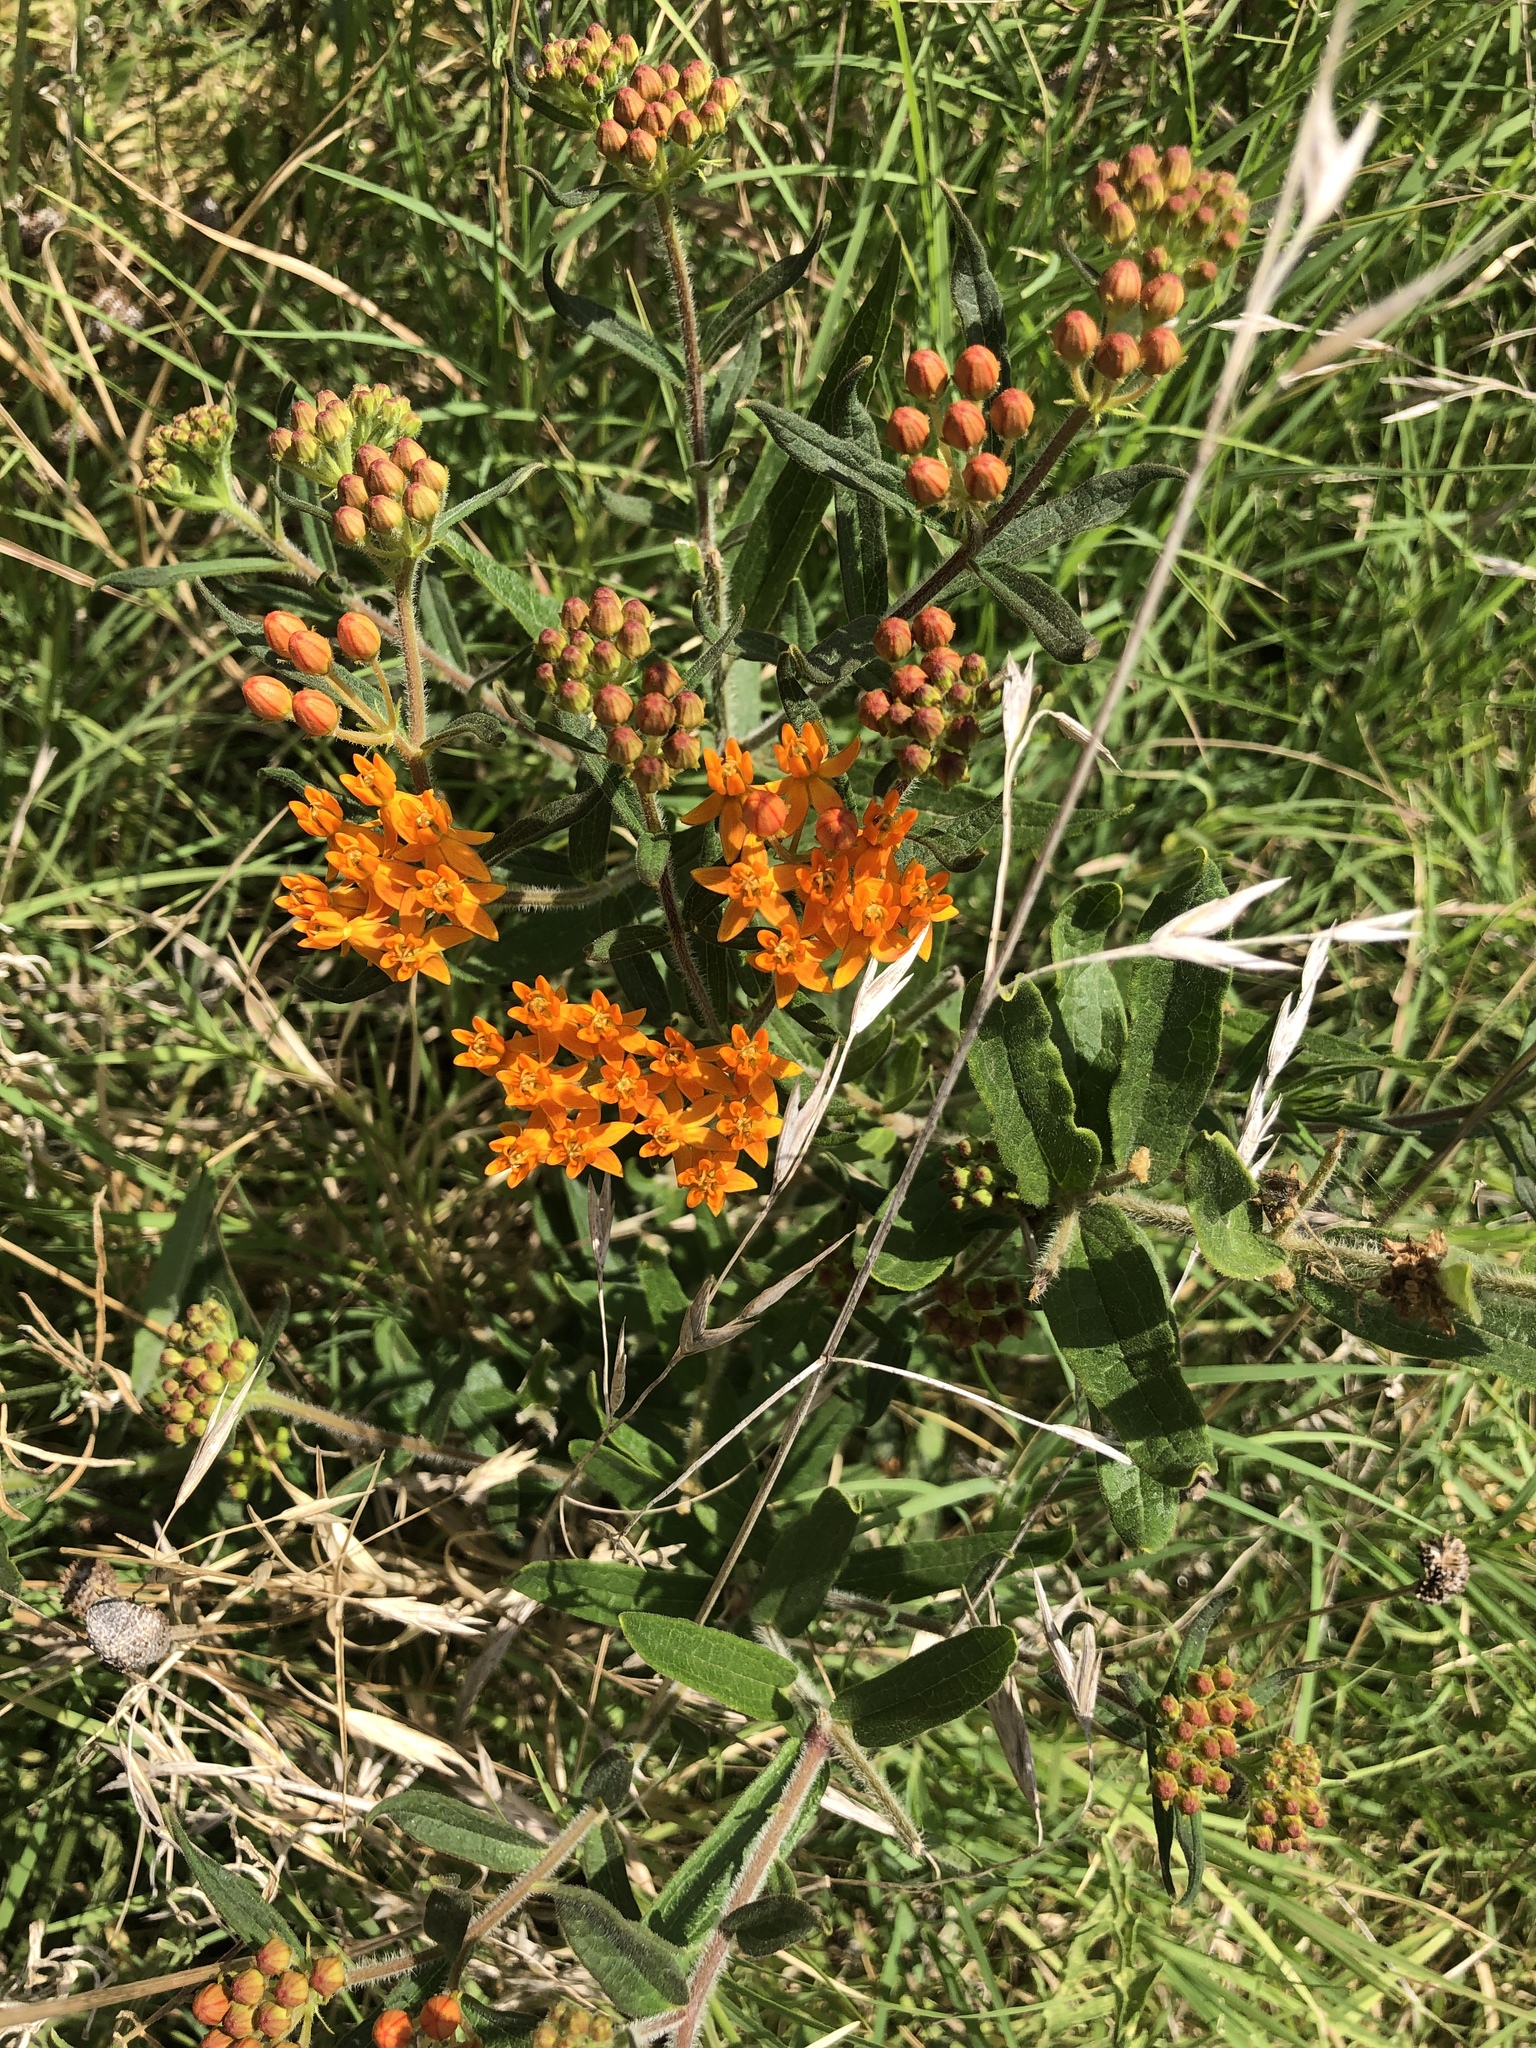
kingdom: Plantae
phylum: Tracheophyta
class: Magnoliopsida
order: Gentianales
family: Apocynaceae
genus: Asclepias
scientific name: Asclepias tuberosa
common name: Butterfly milkweed
